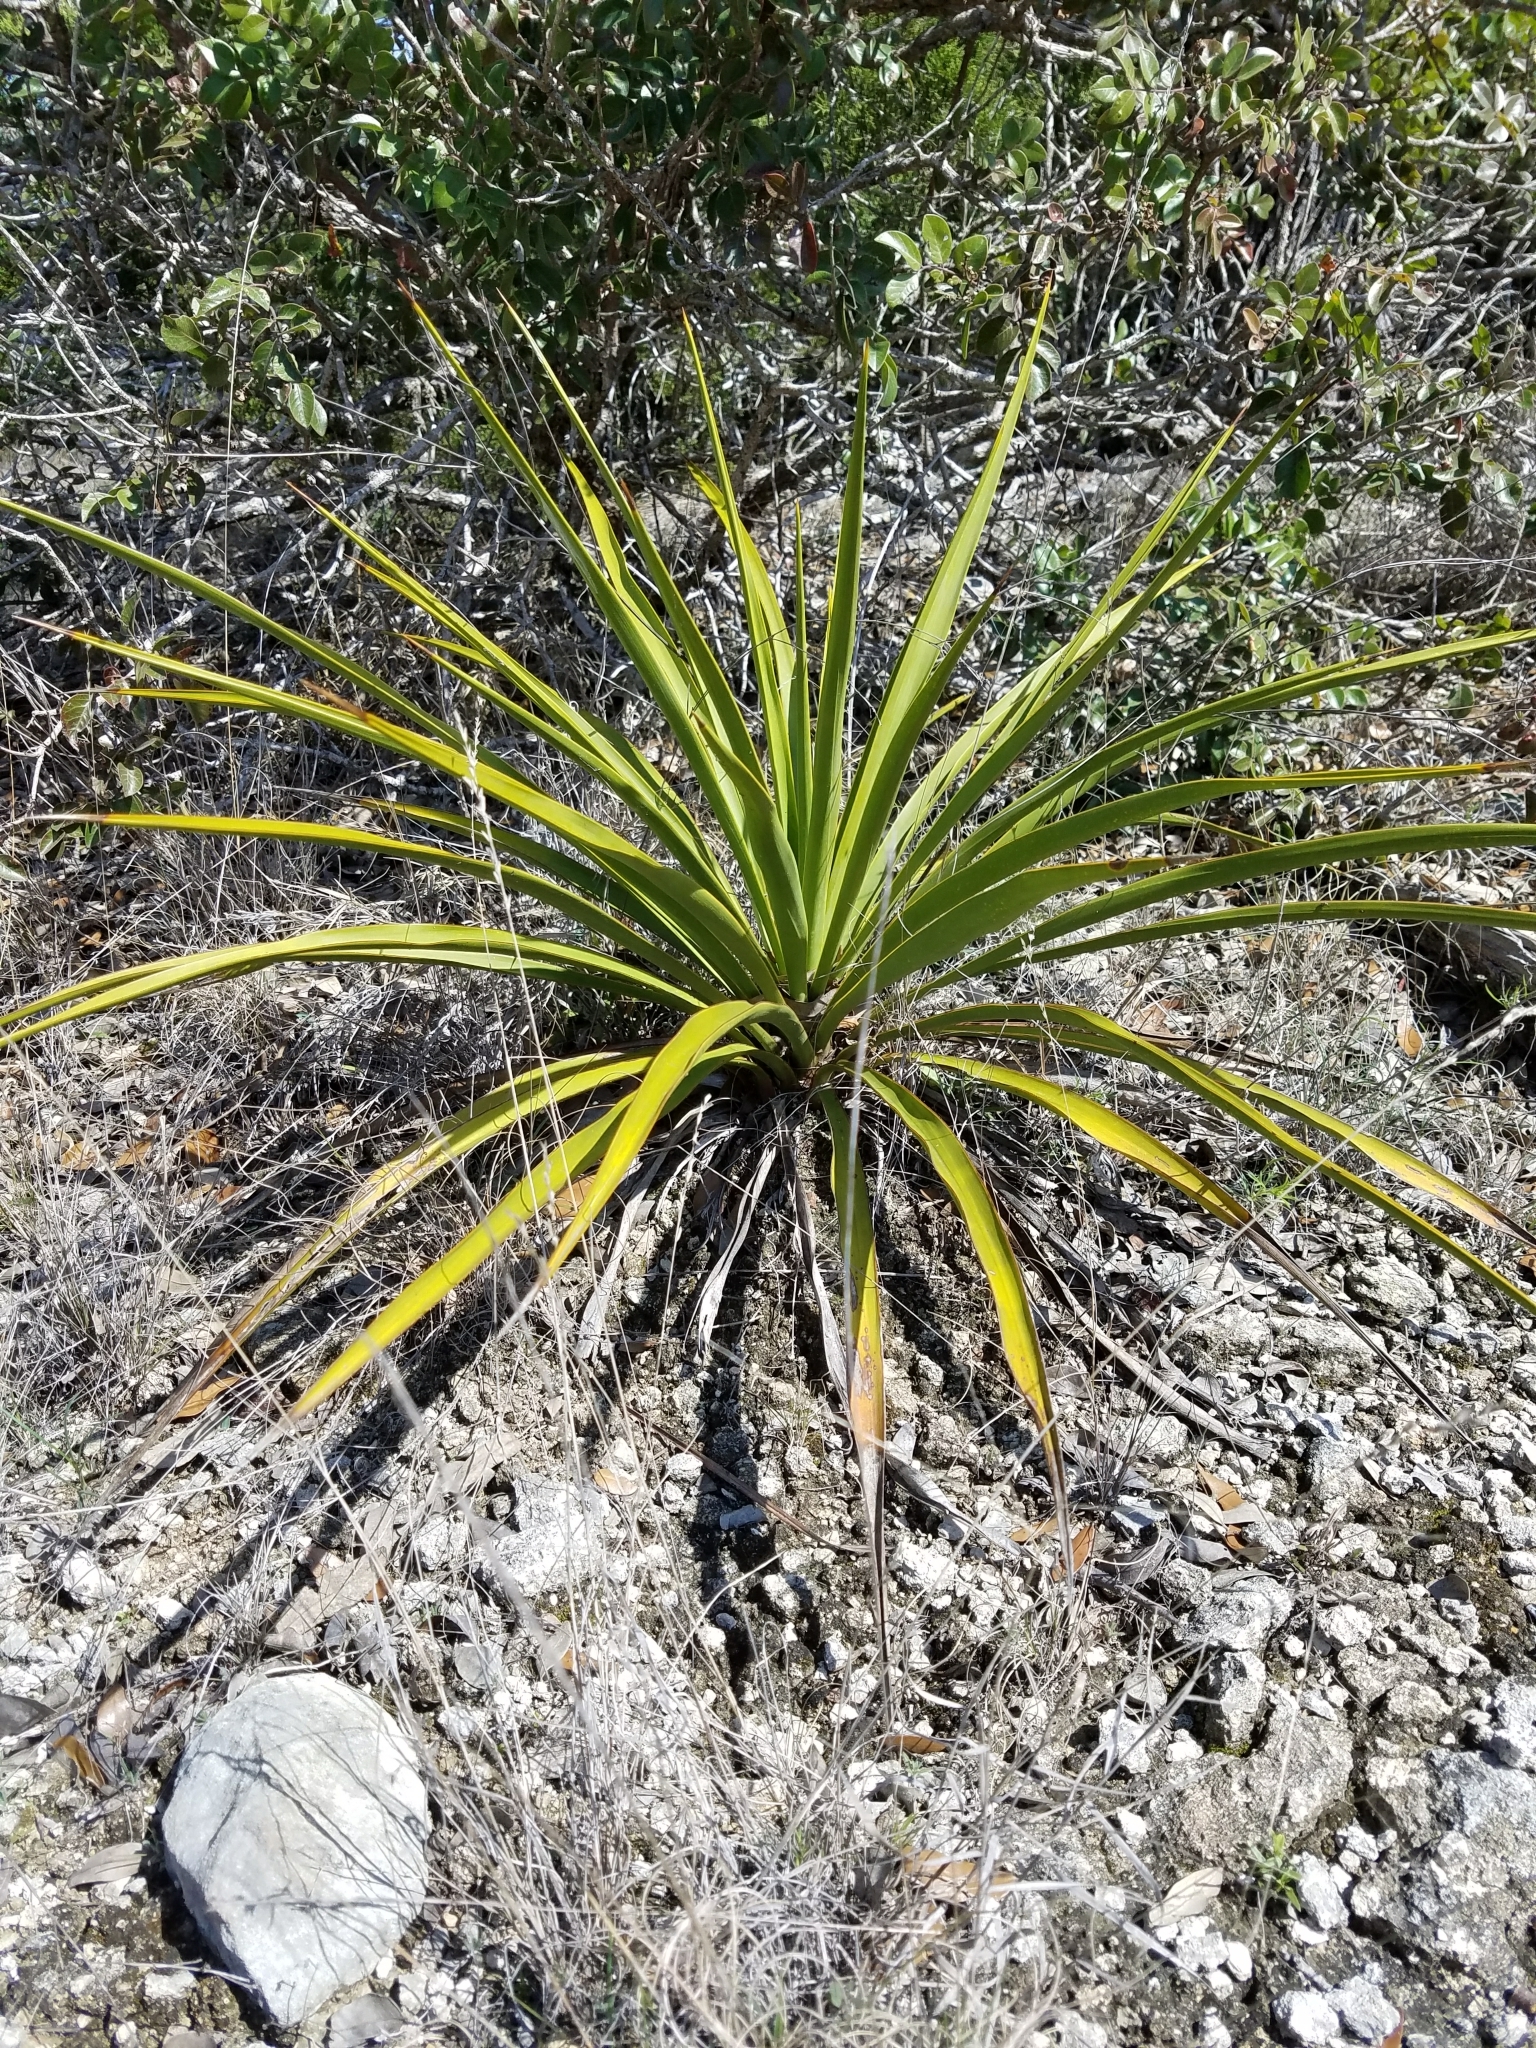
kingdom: Plantae
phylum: Tracheophyta
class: Liliopsida
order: Asparagales
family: Asparagaceae
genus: Yucca
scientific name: Yucca rupicola
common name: Twisted-leaf spanish-dagger
